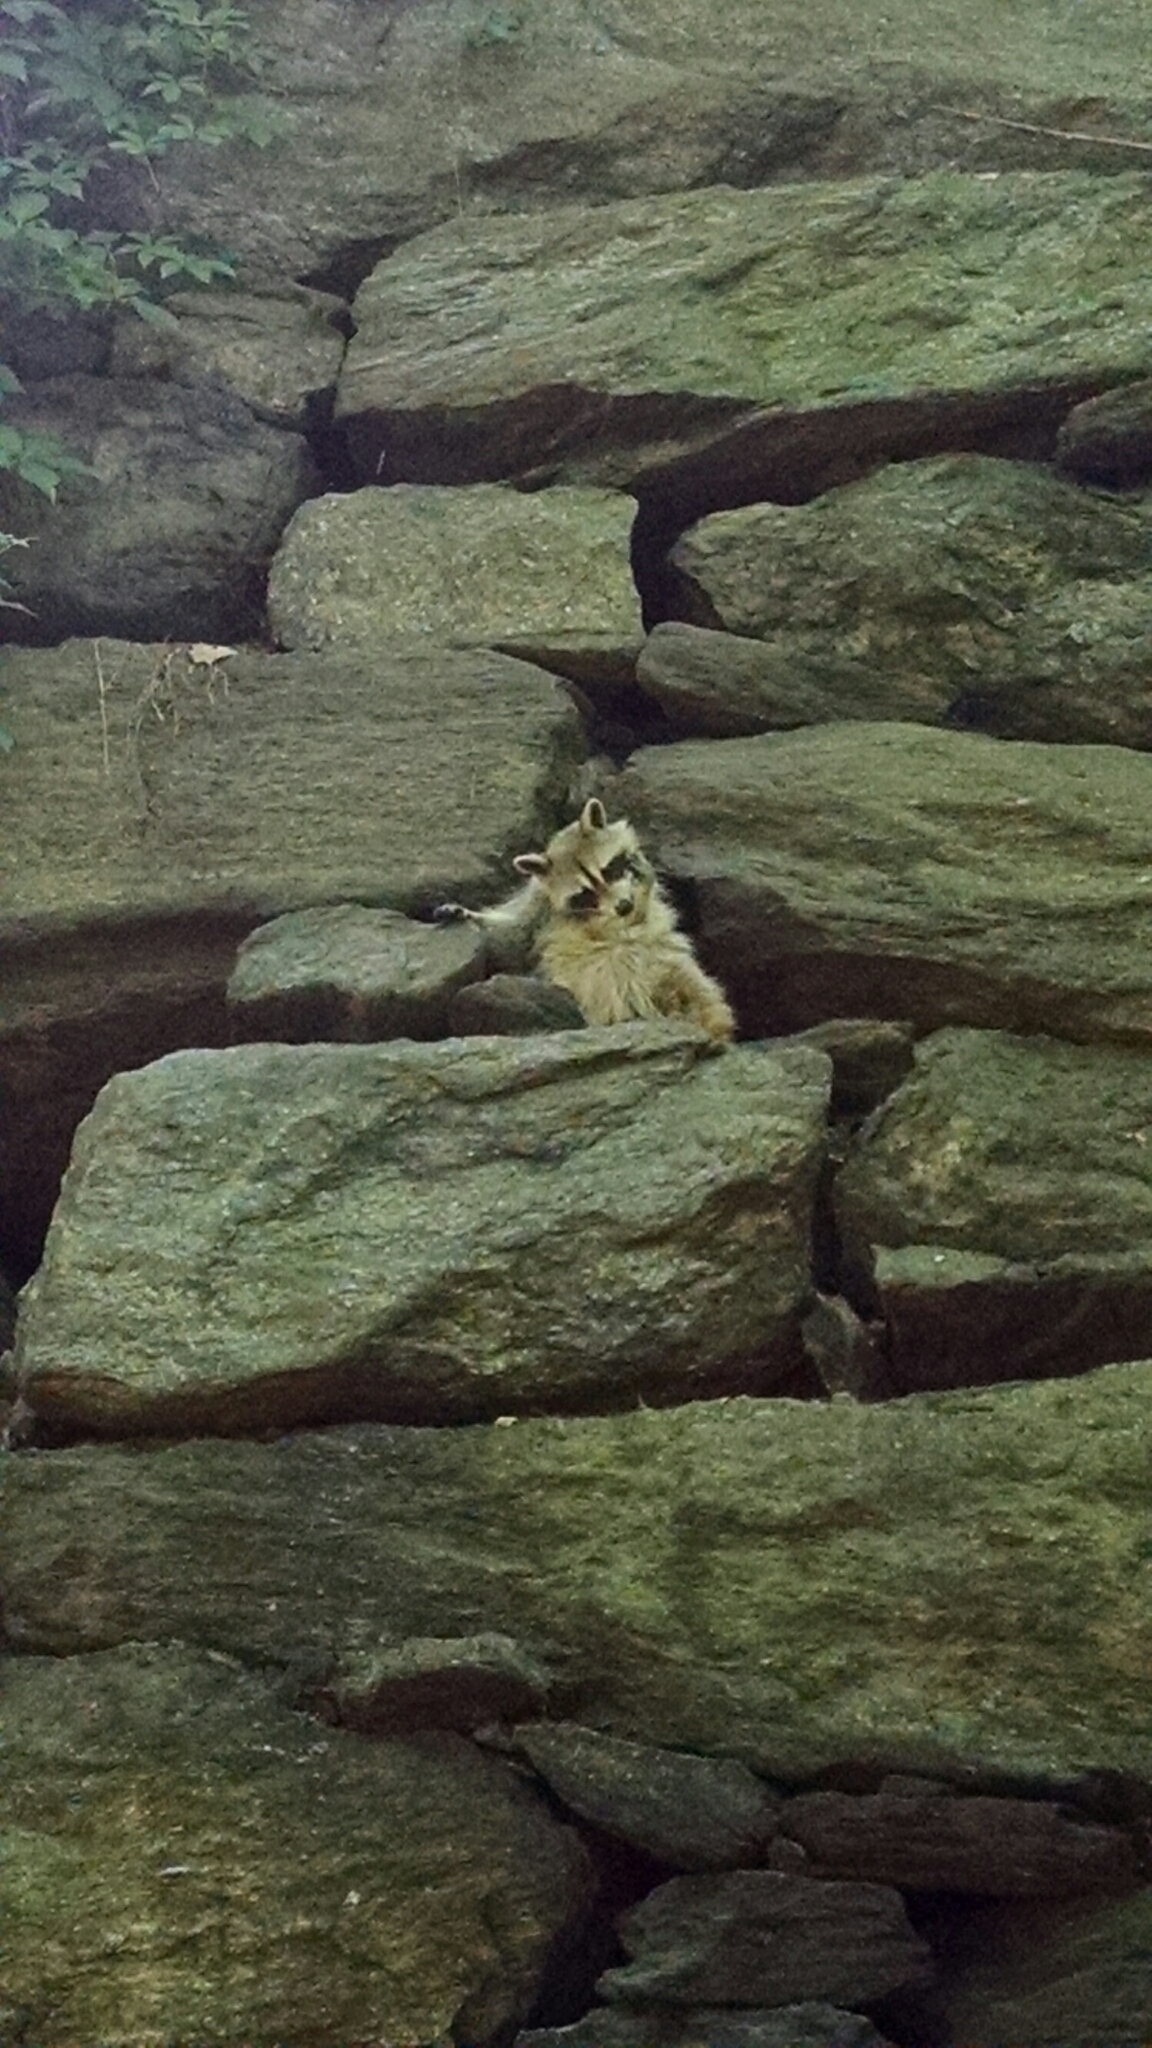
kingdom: Animalia
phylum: Chordata
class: Mammalia
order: Carnivora
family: Procyonidae
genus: Procyon
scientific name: Procyon lotor
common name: Raccoon
